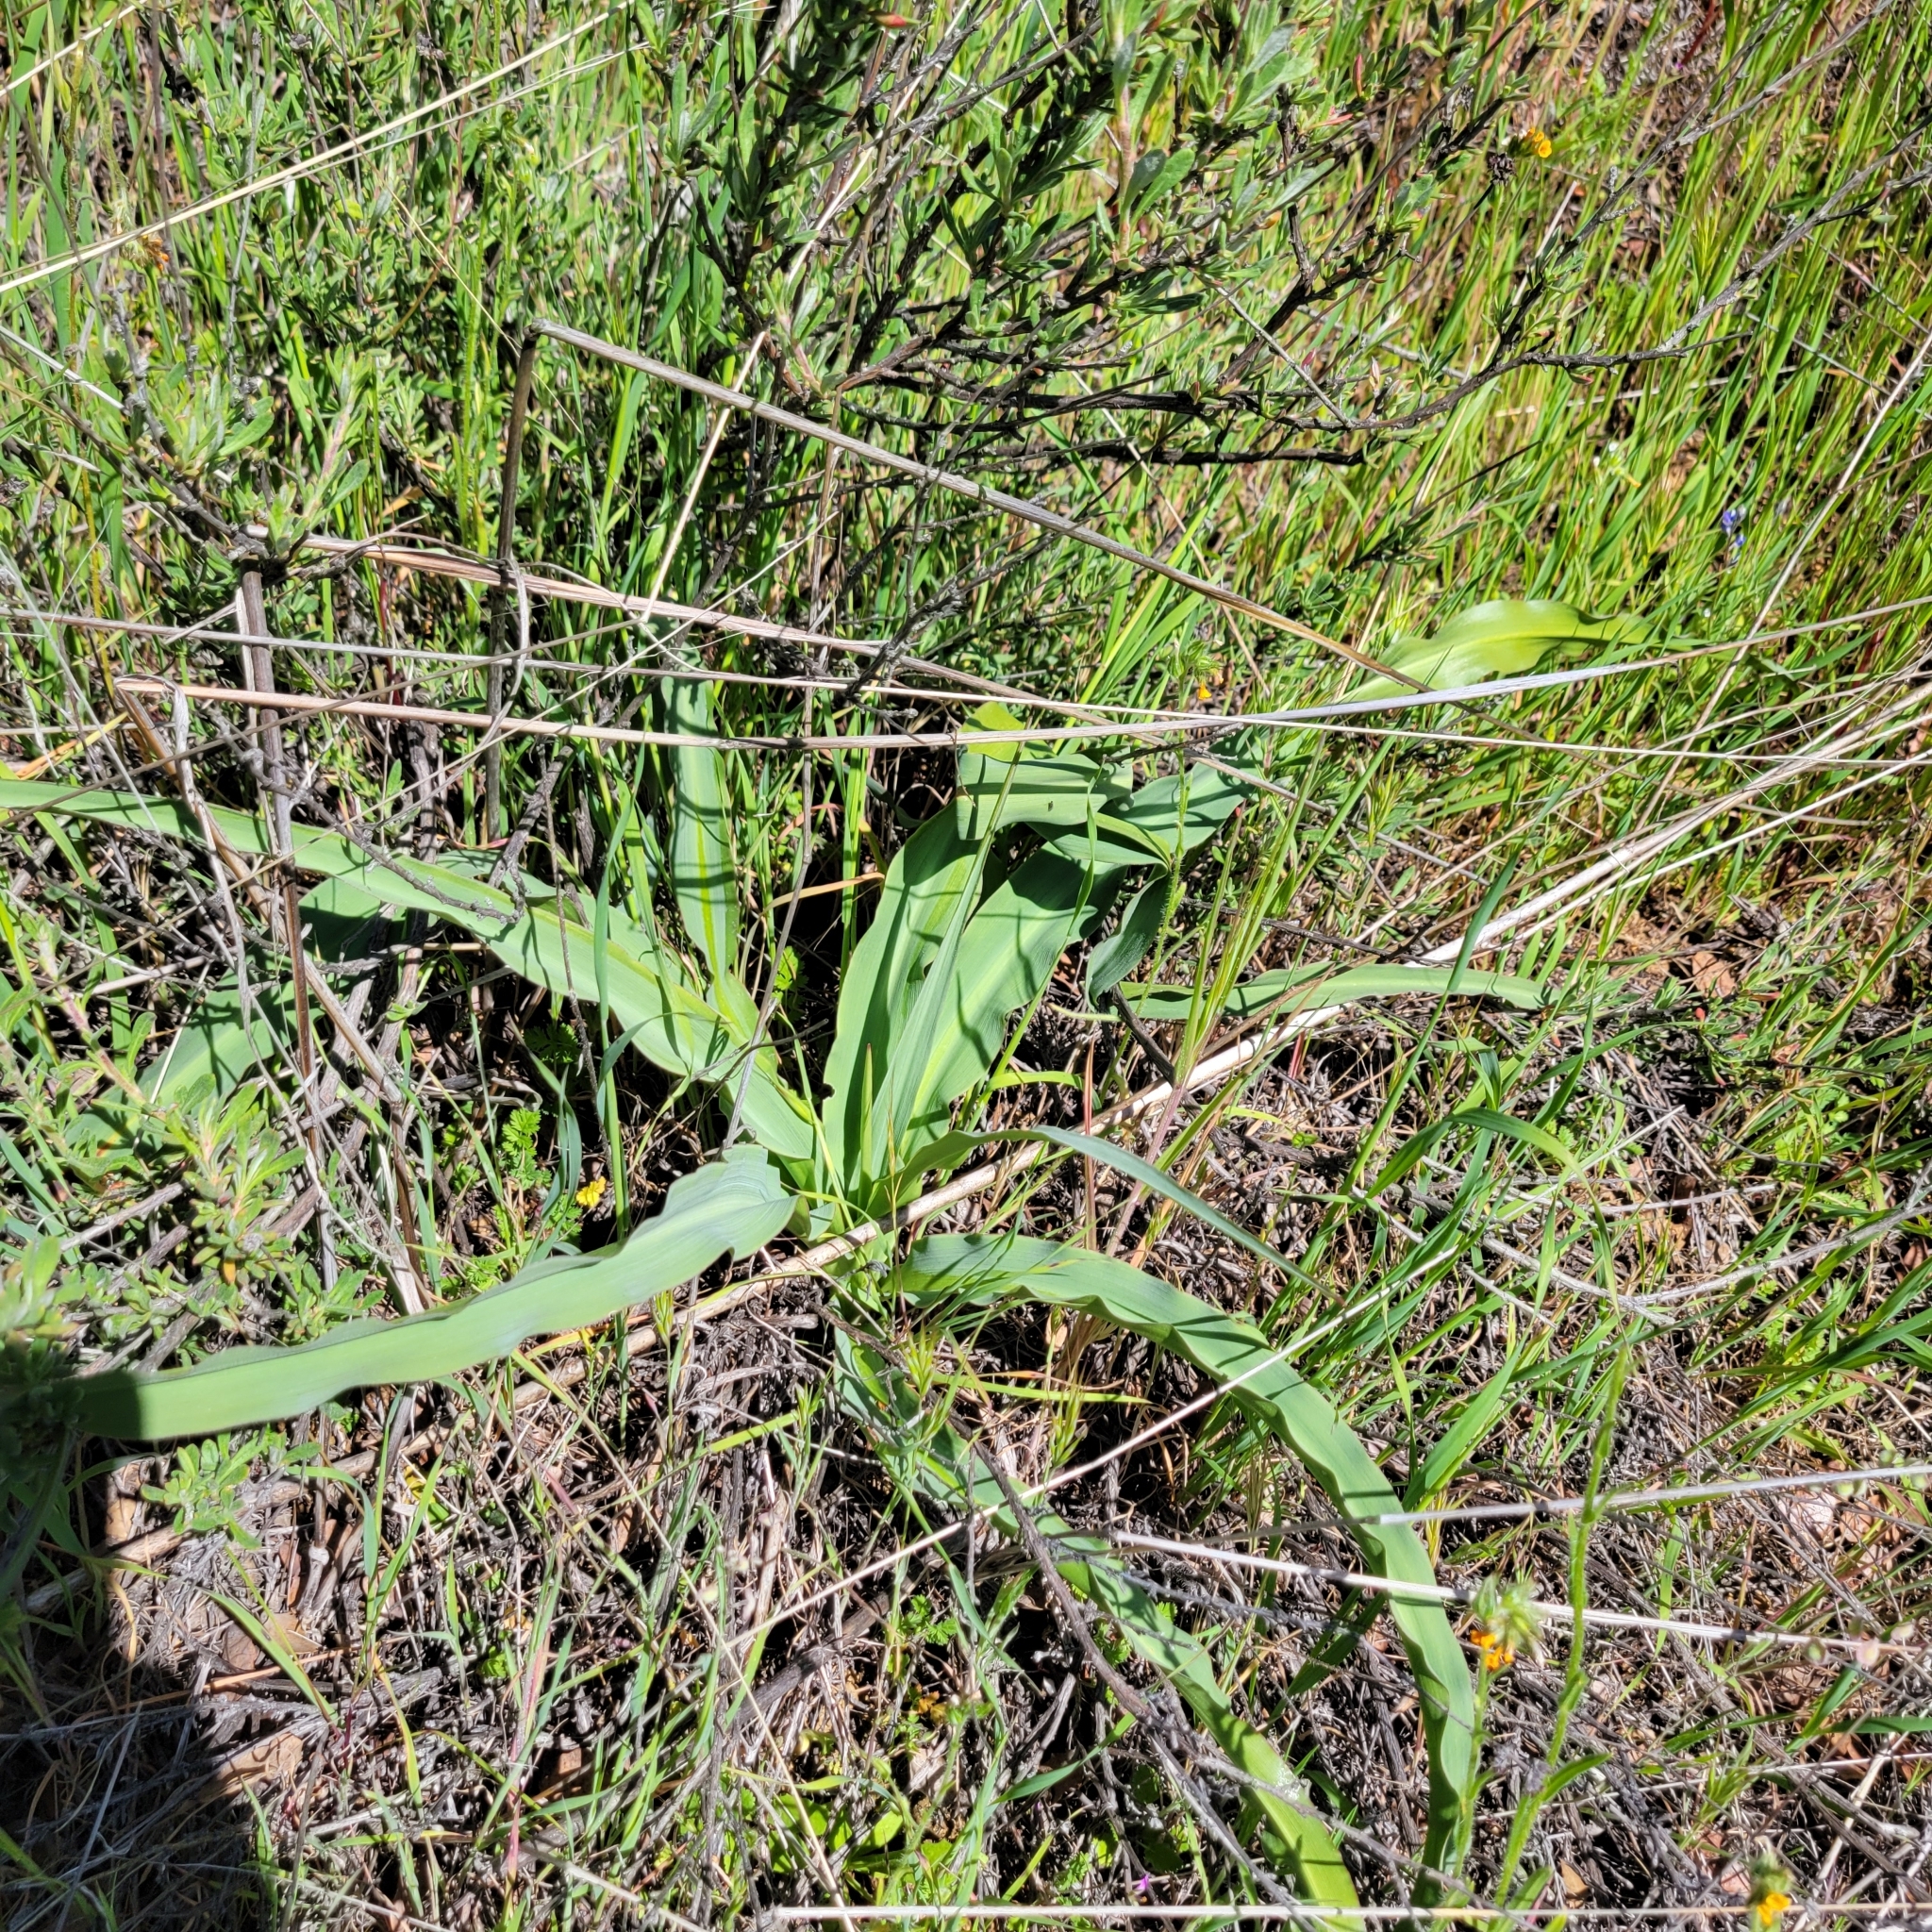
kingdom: Plantae
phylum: Tracheophyta
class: Liliopsida
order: Asparagales
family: Asparagaceae
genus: Chlorogalum
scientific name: Chlorogalum pomeridianum
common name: Amole
